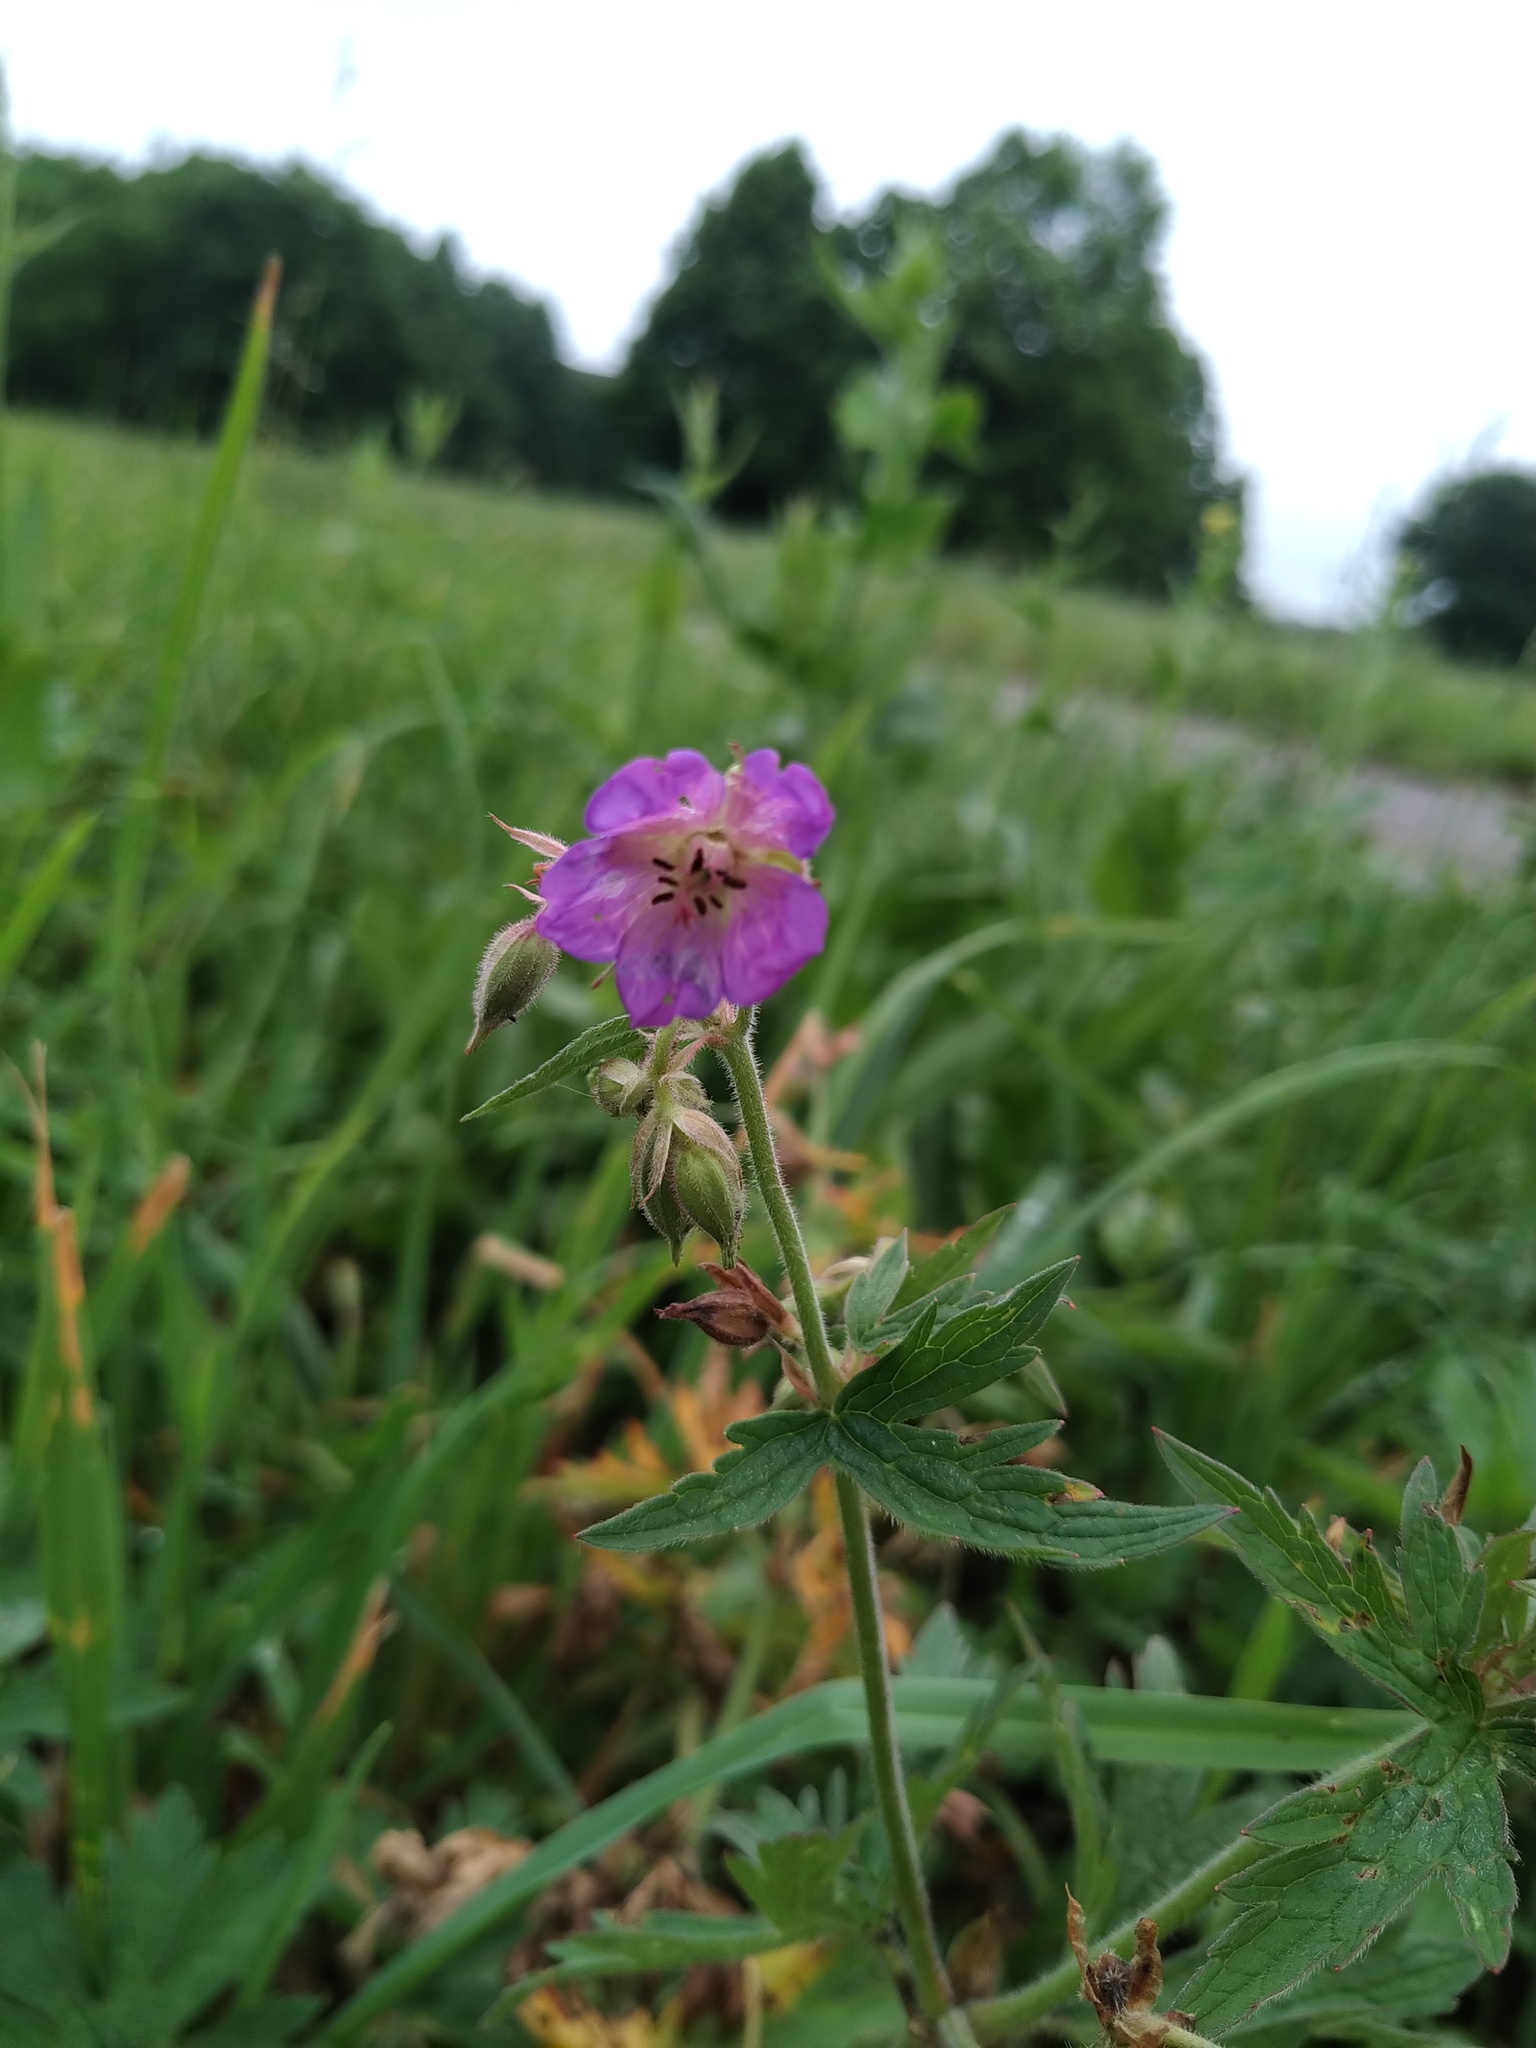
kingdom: Plantae
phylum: Tracheophyta
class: Magnoliopsida
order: Geraniales
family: Geraniaceae
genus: Geranium
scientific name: Geranium pratense
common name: Meadow crane's-bill
